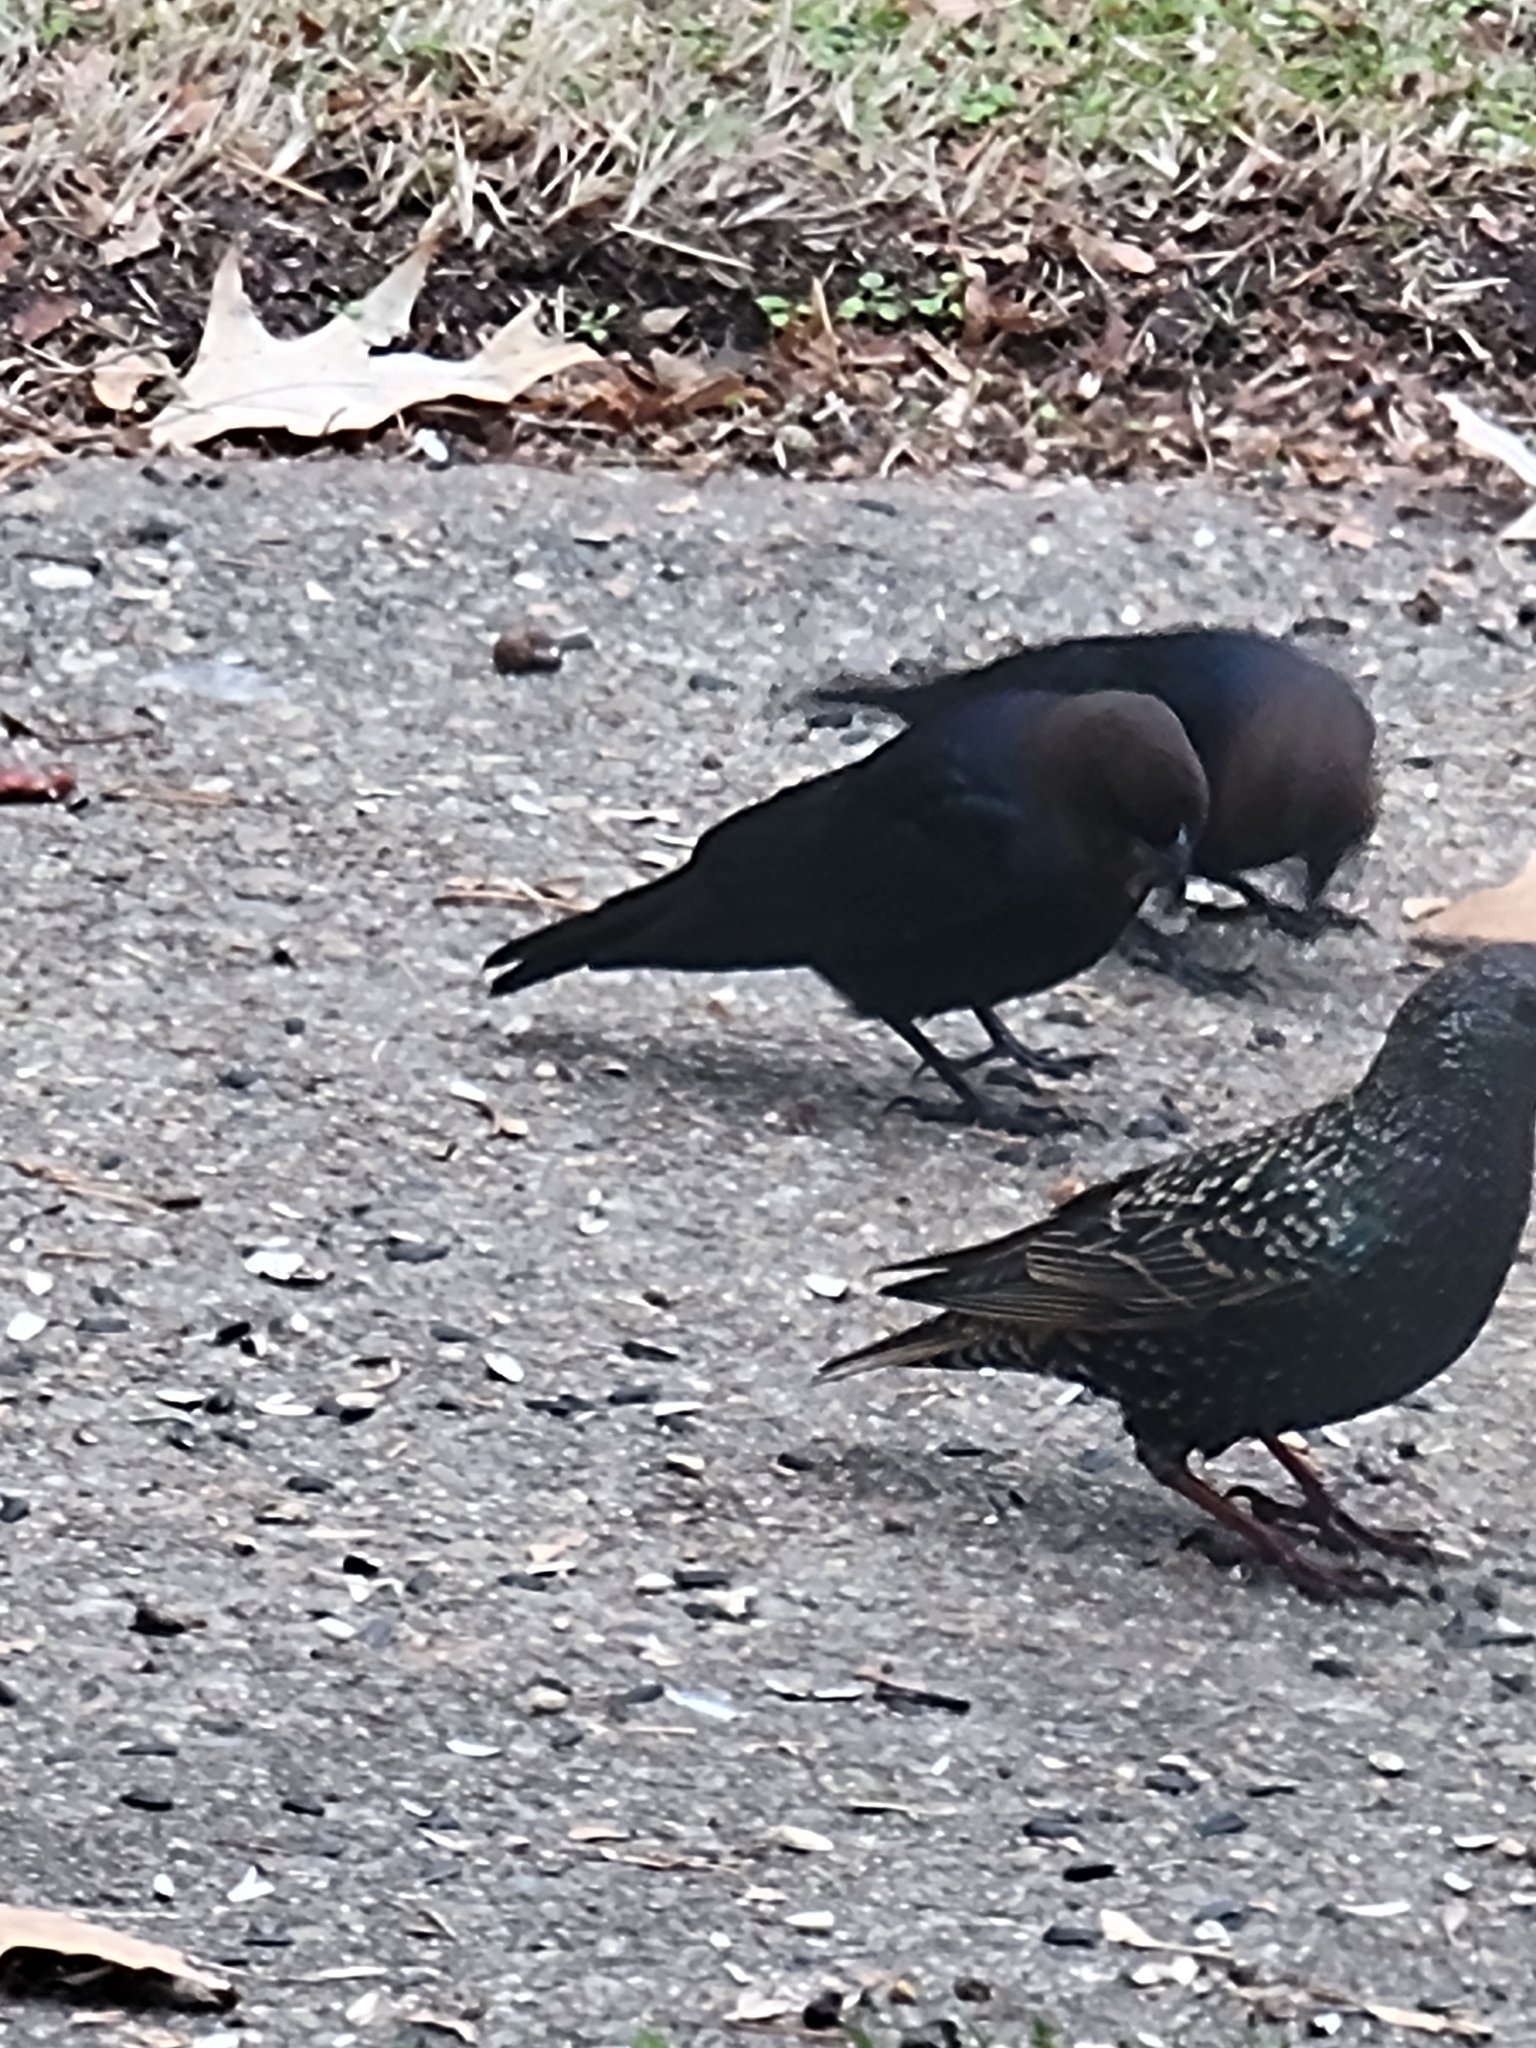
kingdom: Animalia
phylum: Chordata
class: Aves
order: Passeriformes
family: Icteridae
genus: Molothrus
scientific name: Molothrus ater
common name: Brown-headed cowbird
